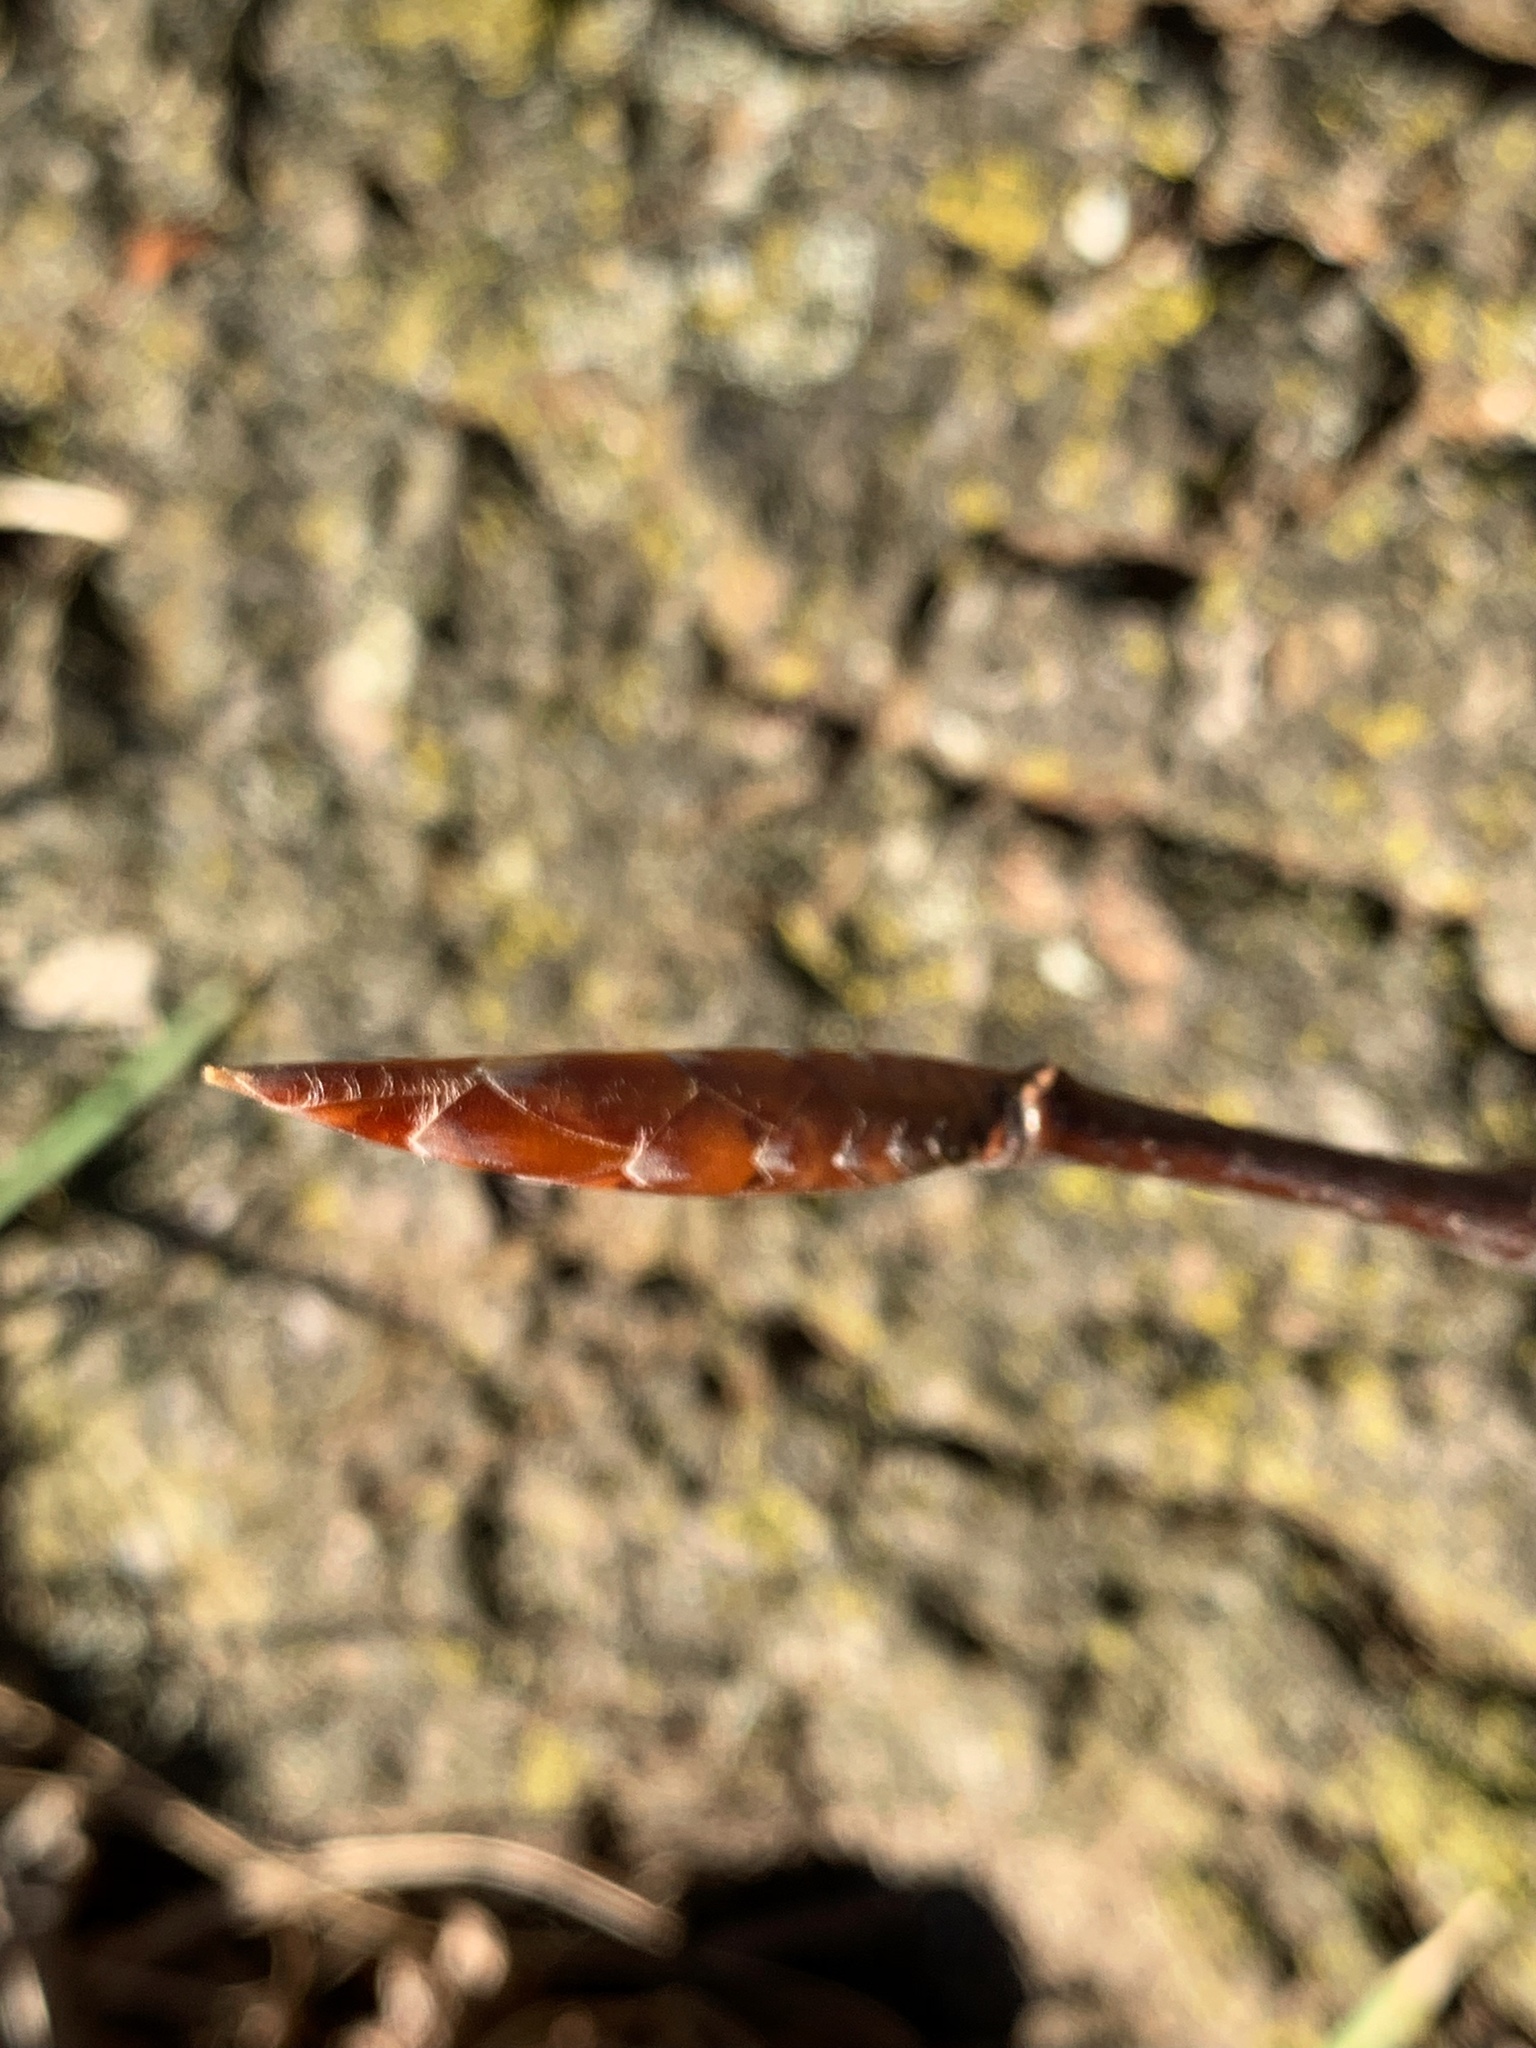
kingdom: Plantae
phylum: Tracheophyta
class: Magnoliopsida
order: Fagales
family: Fagaceae
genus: Fagus
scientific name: Fagus grandifolia
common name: American beech
